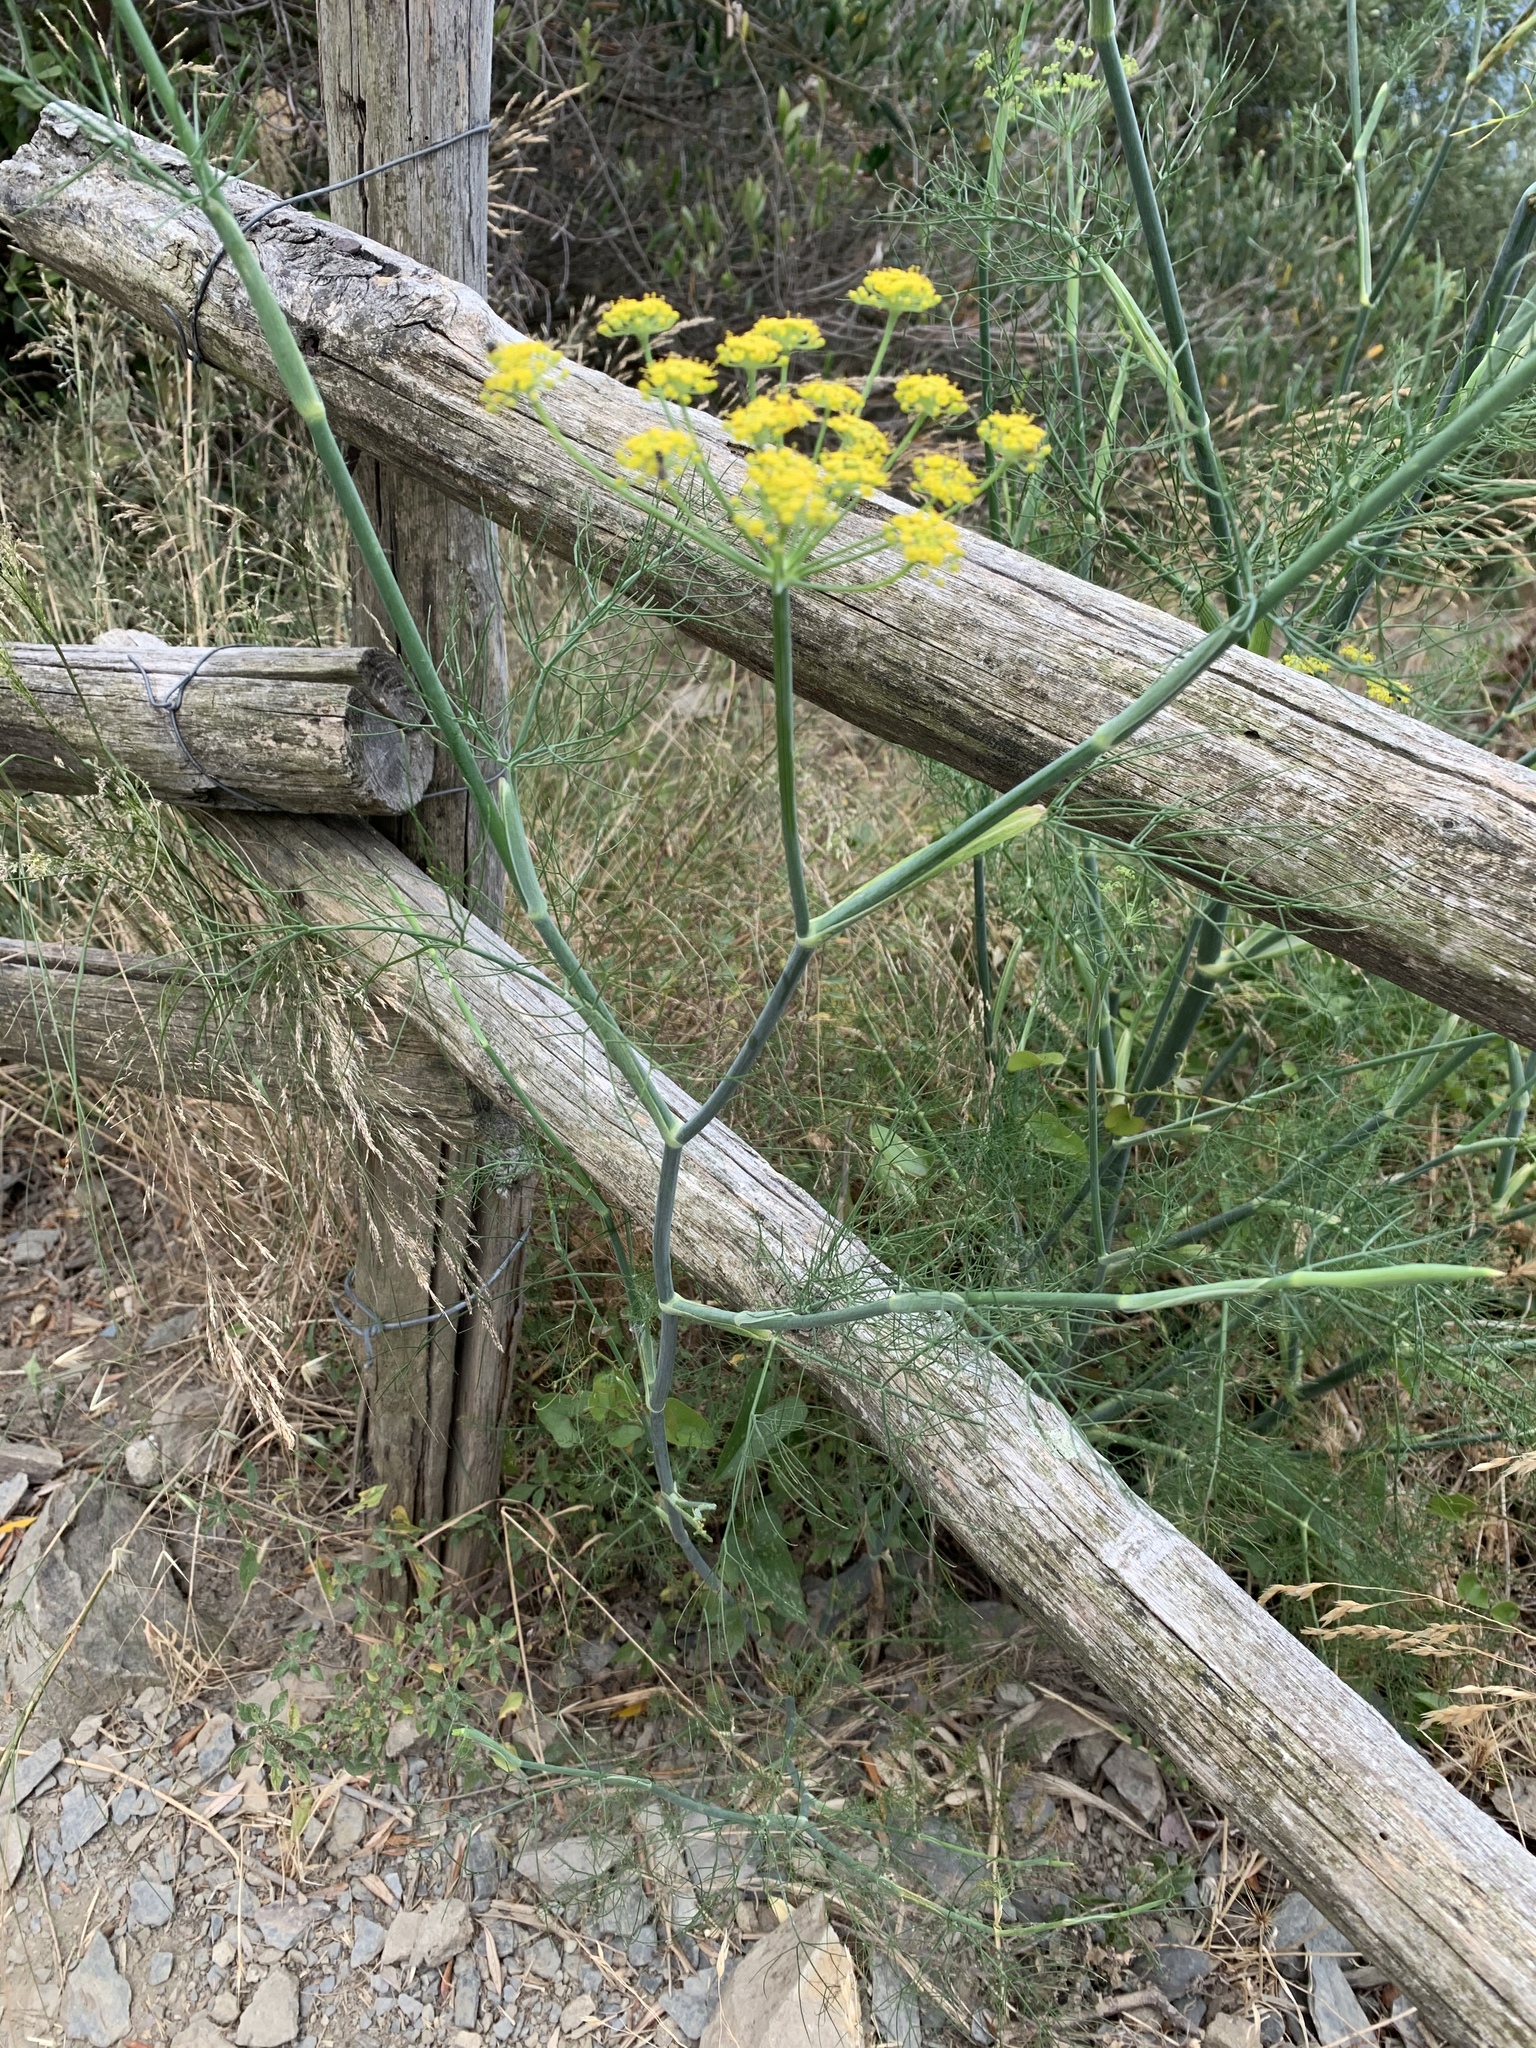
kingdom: Plantae
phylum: Tracheophyta
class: Magnoliopsida
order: Apiales
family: Apiaceae
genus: Foeniculum
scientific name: Foeniculum vulgare
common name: Fennel
